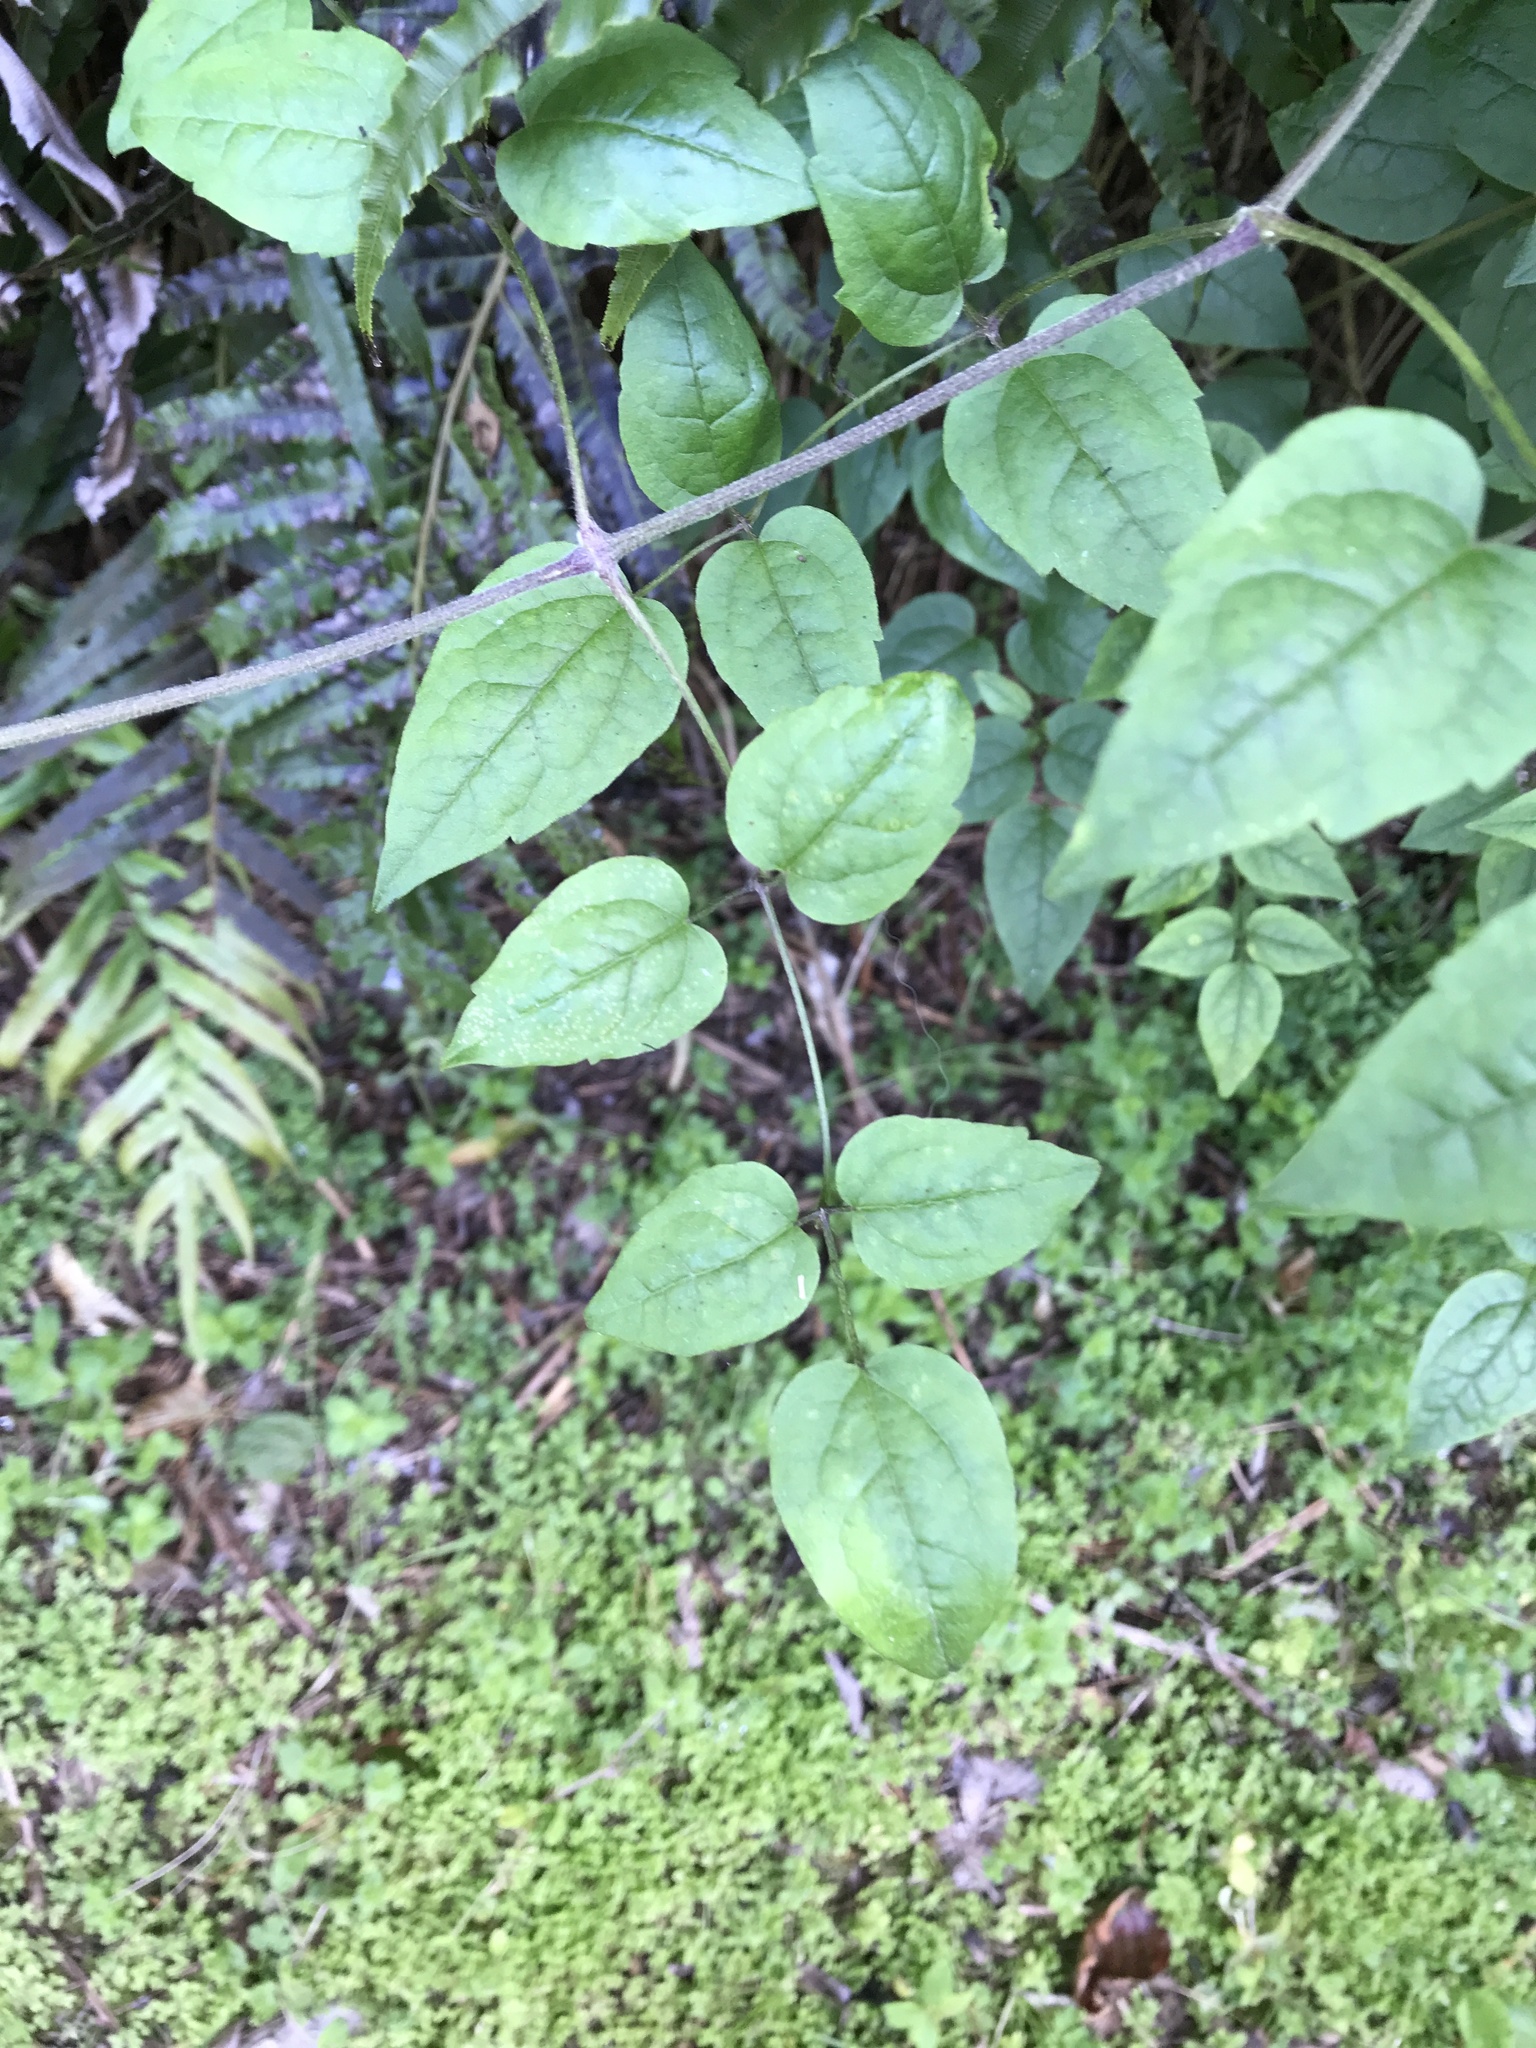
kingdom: Plantae
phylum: Tracheophyta
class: Magnoliopsida
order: Ranunculales
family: Ranunculaceae
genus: Clematis
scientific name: Clematis vitalba
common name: Evergreen clematis
